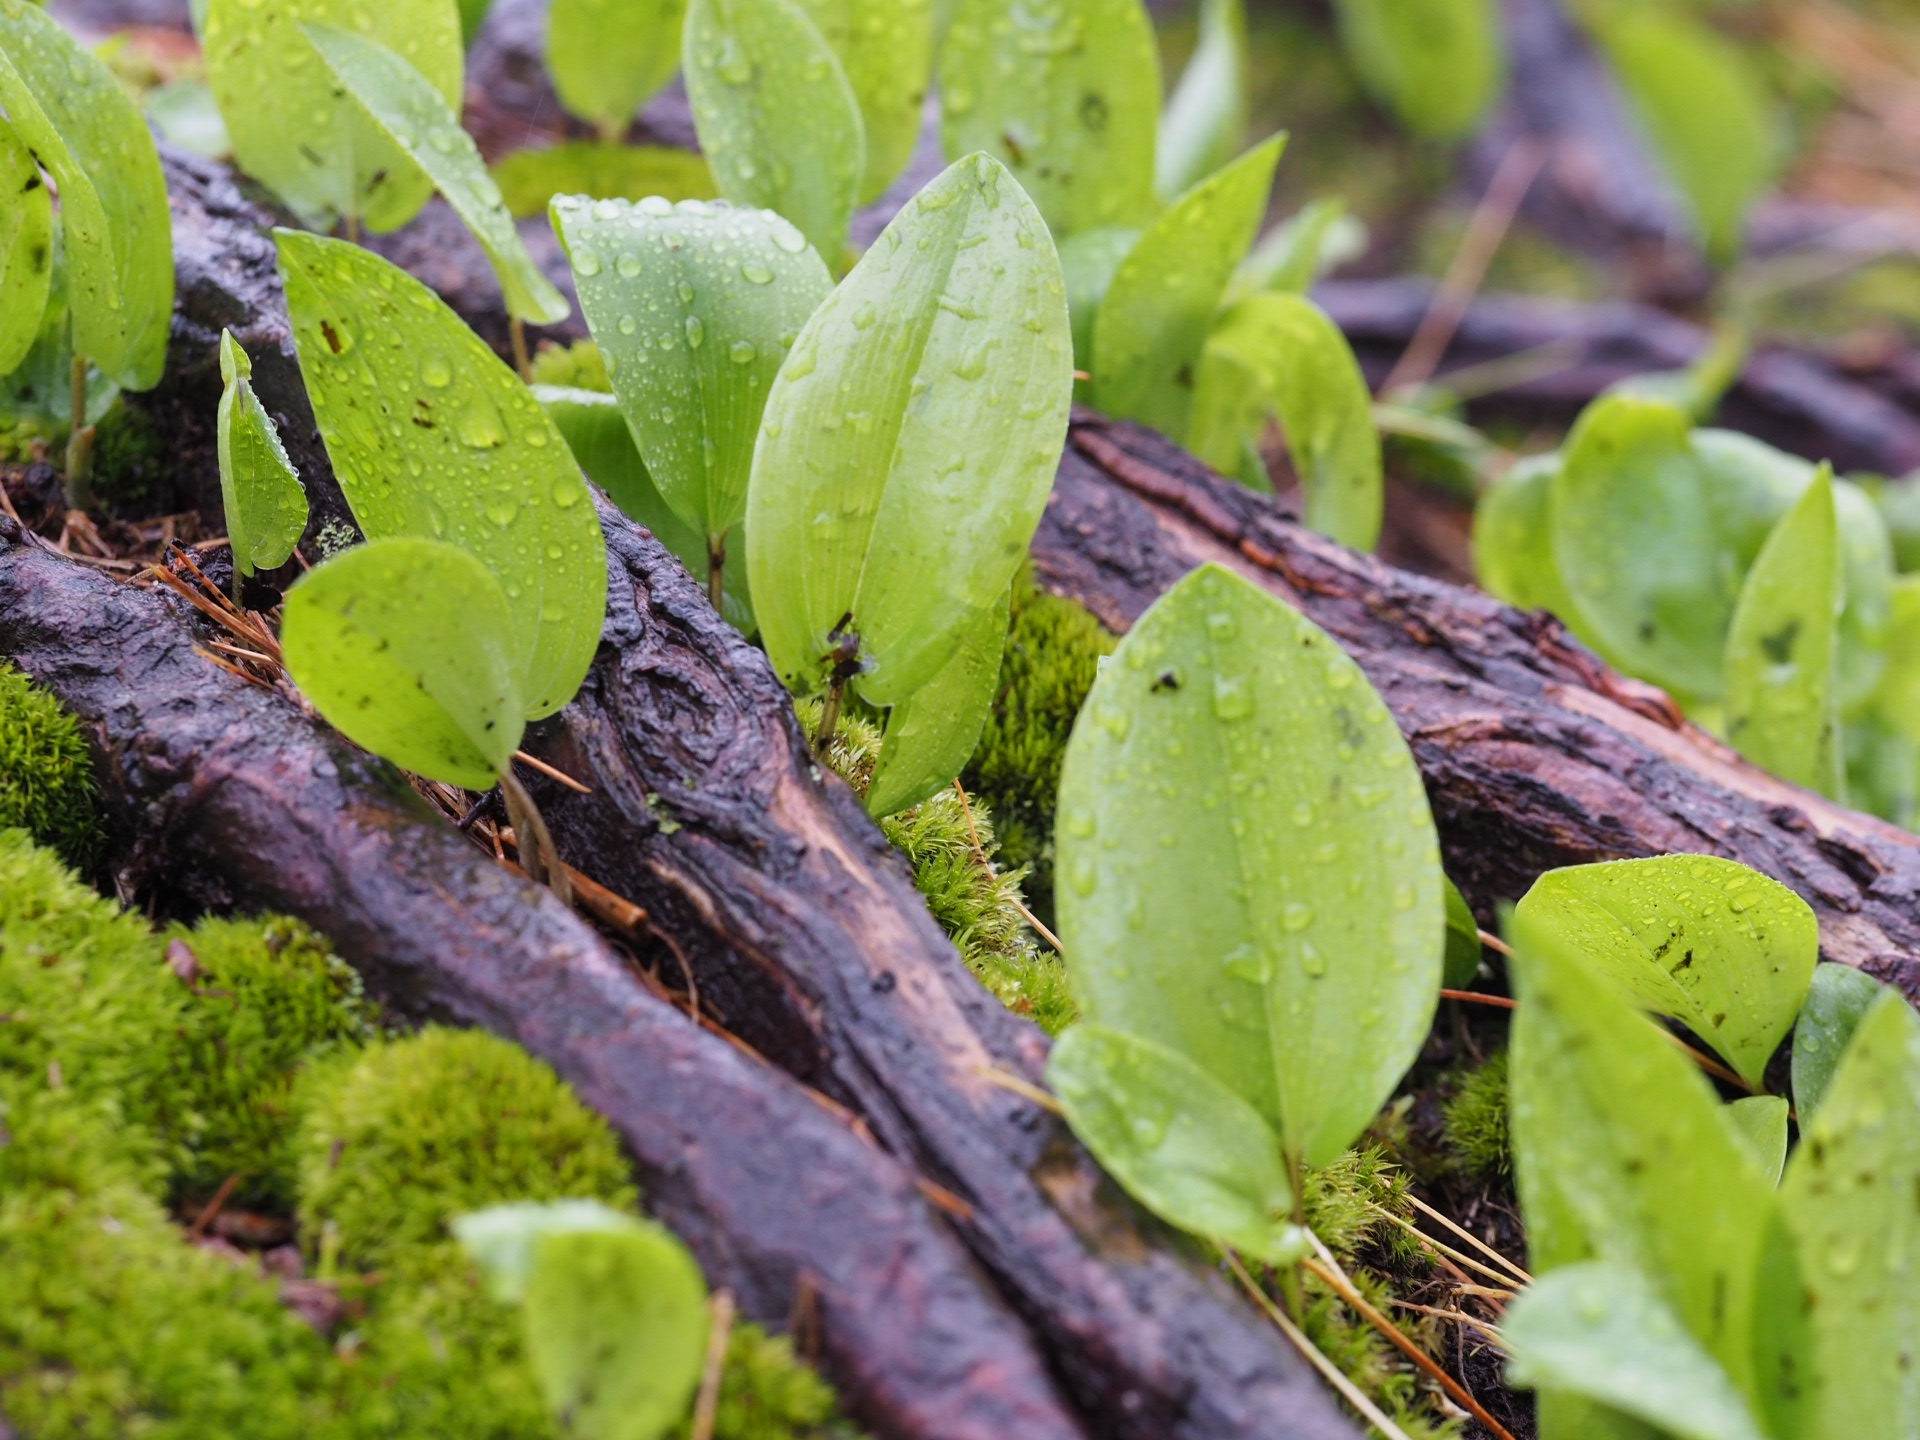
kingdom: Plantae
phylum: Tracheophyta
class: Liliopsida
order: Asparagales
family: Asparagaceae
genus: Maianthemum
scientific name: Maianthemum canadense
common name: False lily-of-the-valley
